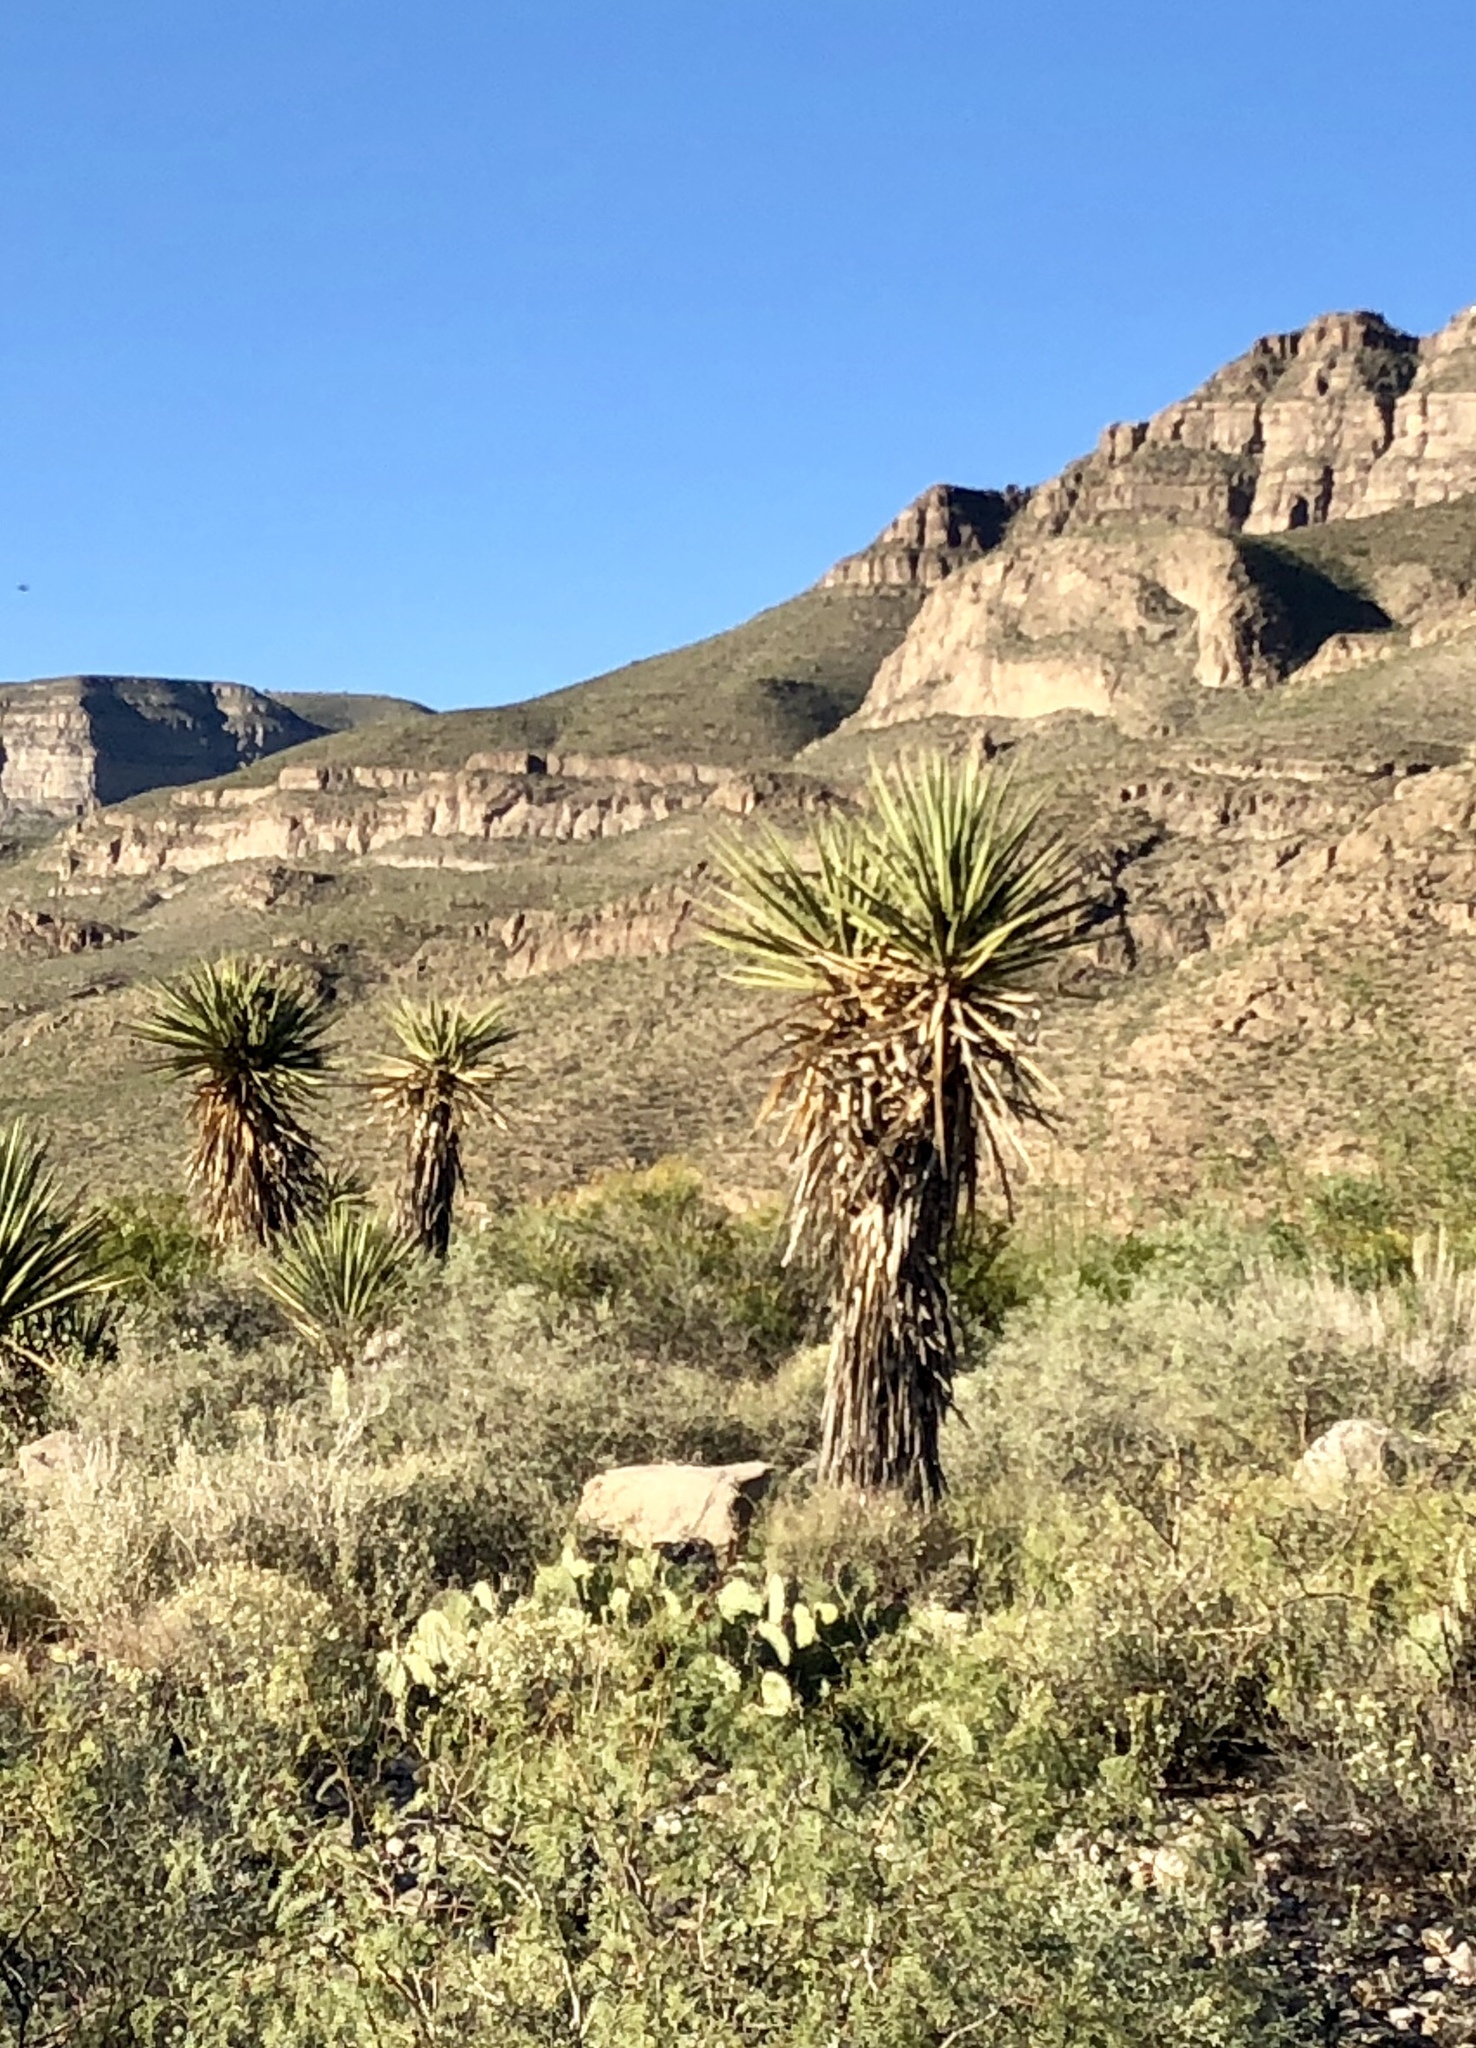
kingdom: Plantae
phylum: Tracheophyta
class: Liliopsida
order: Asparagales
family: Asparagaceae
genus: Yucca
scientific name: Yucca treculiana
